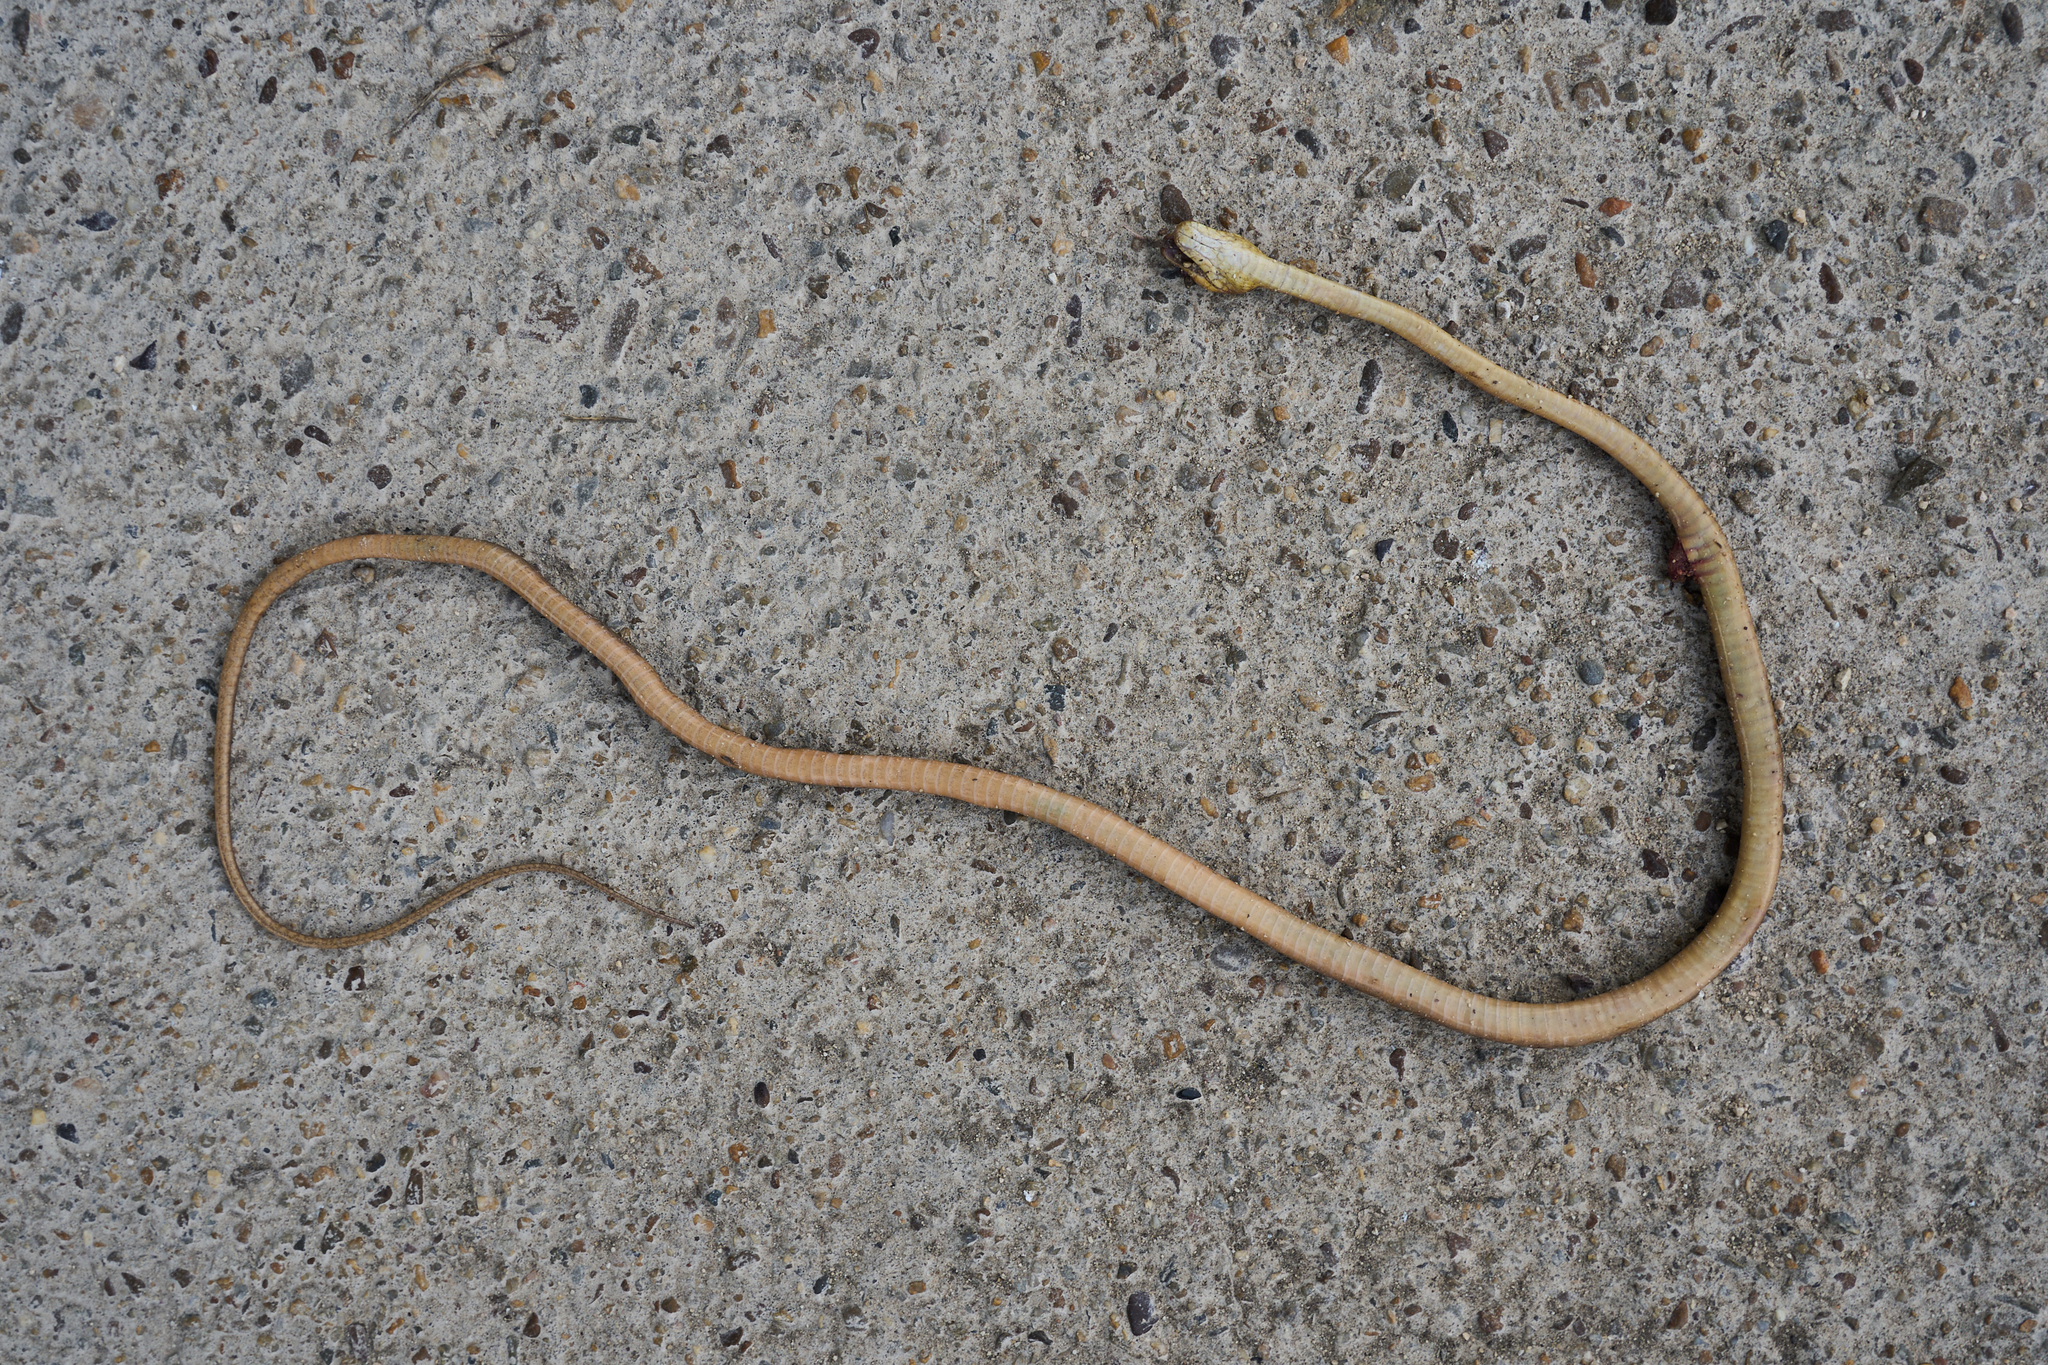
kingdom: Animalia
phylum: Chordata
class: Squamata
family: Colubridae
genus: Leptodeira
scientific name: Leptodeira septentrionalis
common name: Northern cat-eyed snake
